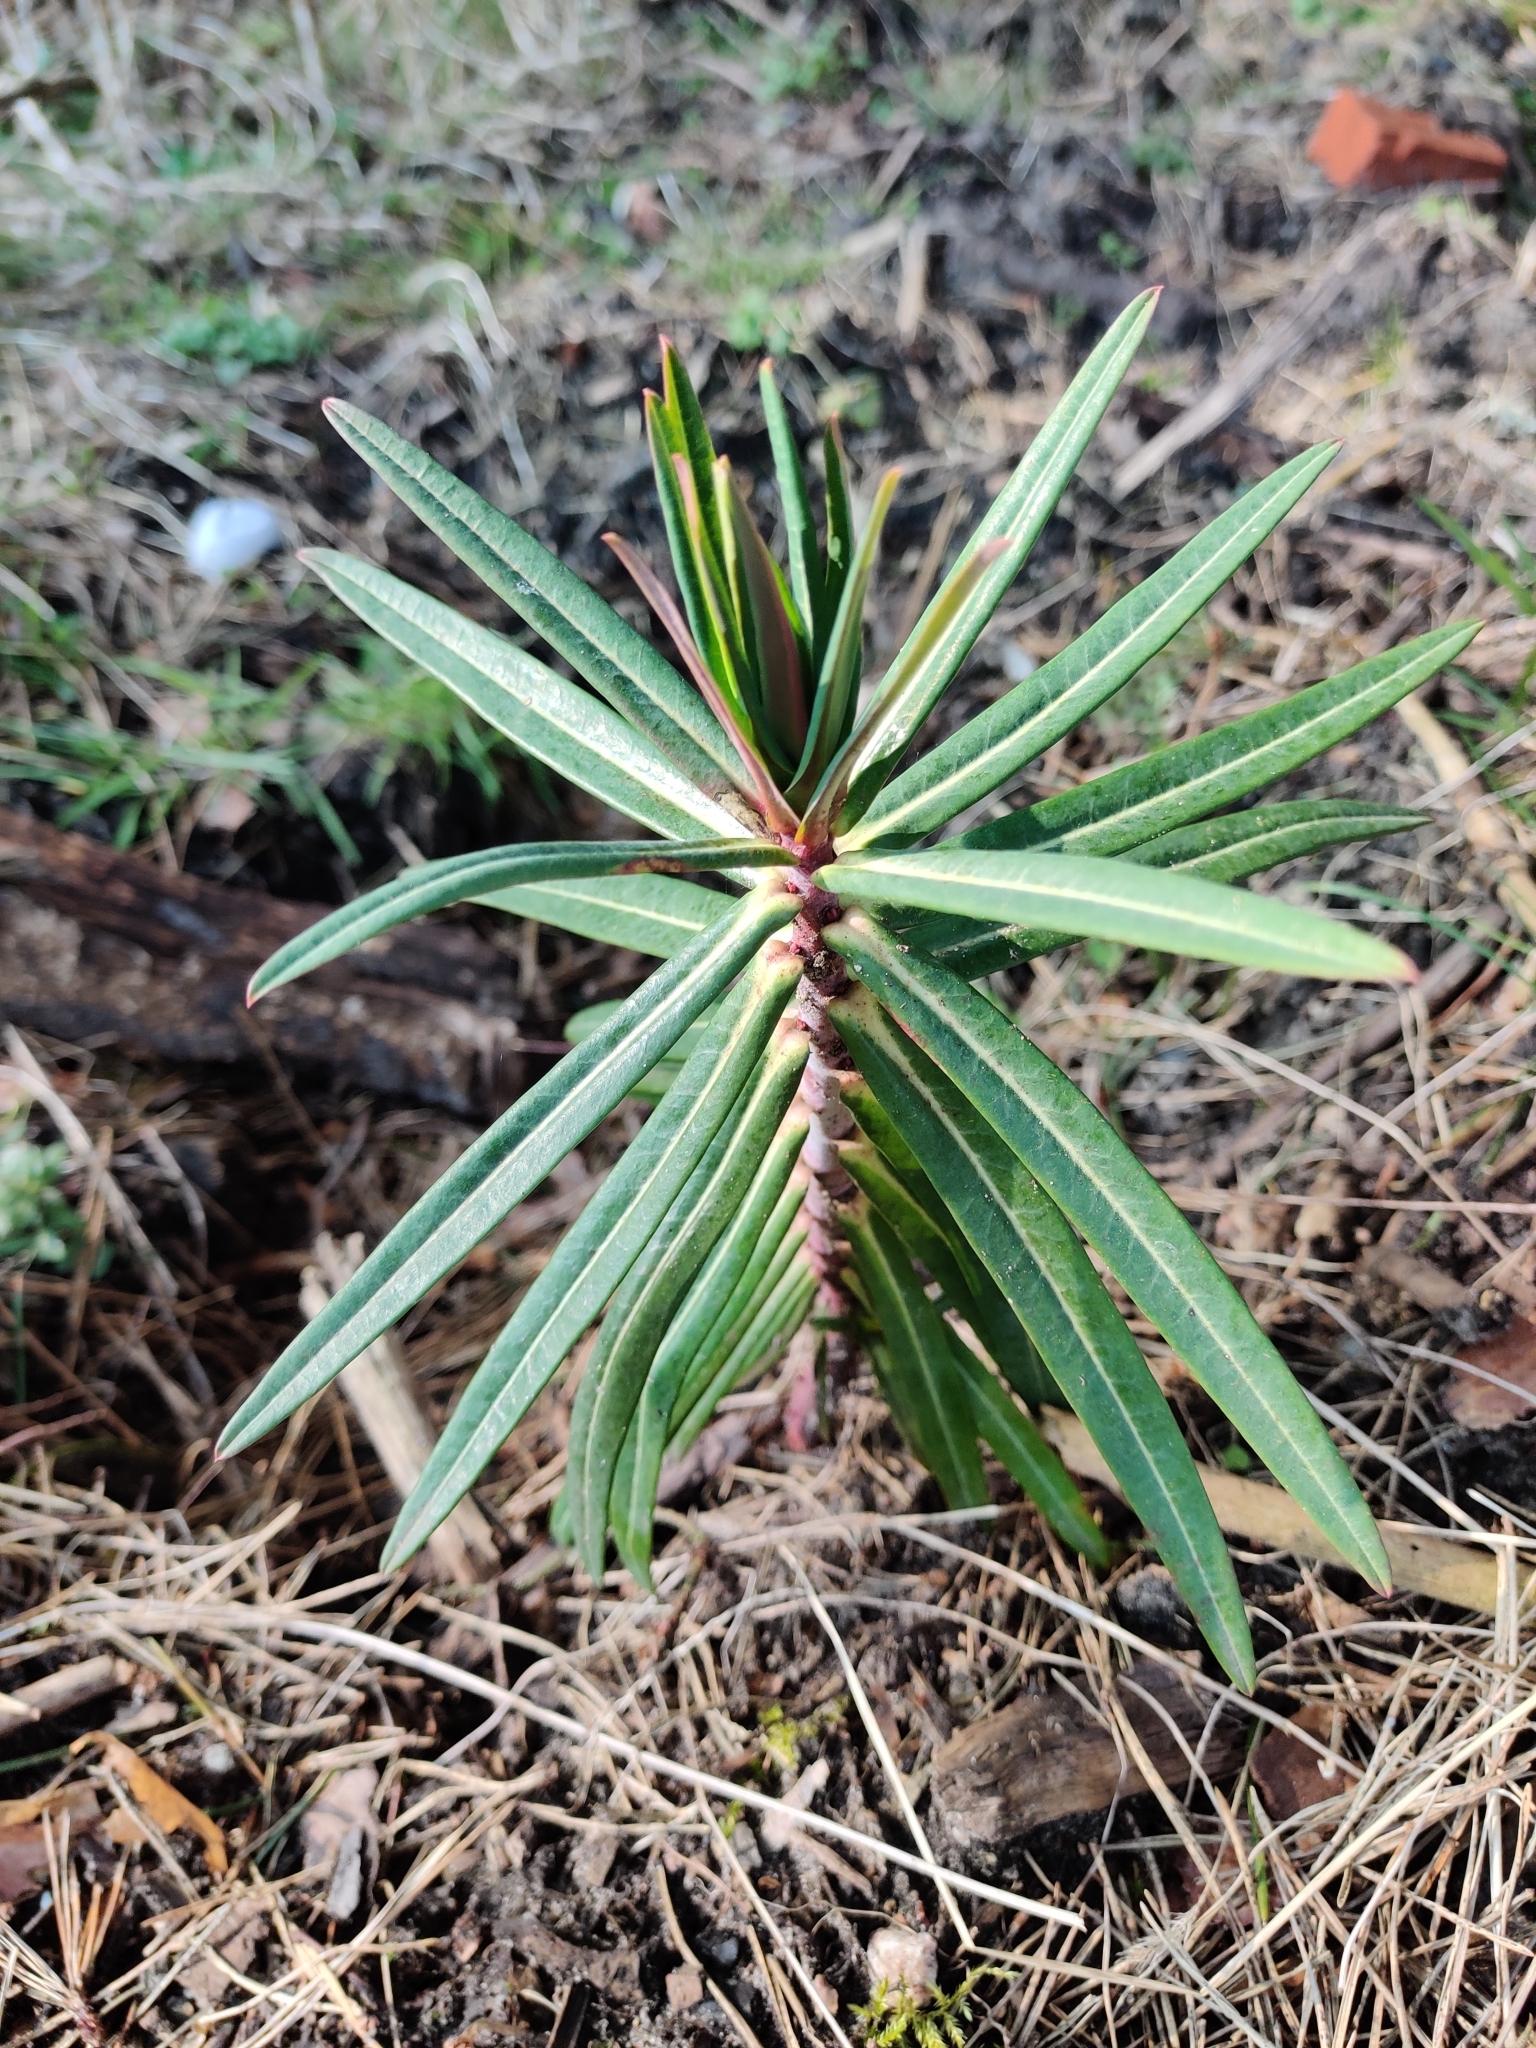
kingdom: Plantae
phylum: Tracheophyta
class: Magnoliopsida
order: Malpighiales
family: Euphorbiaceae
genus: Euphorbia
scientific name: Euphorbia lathyris
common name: Caper spurge
